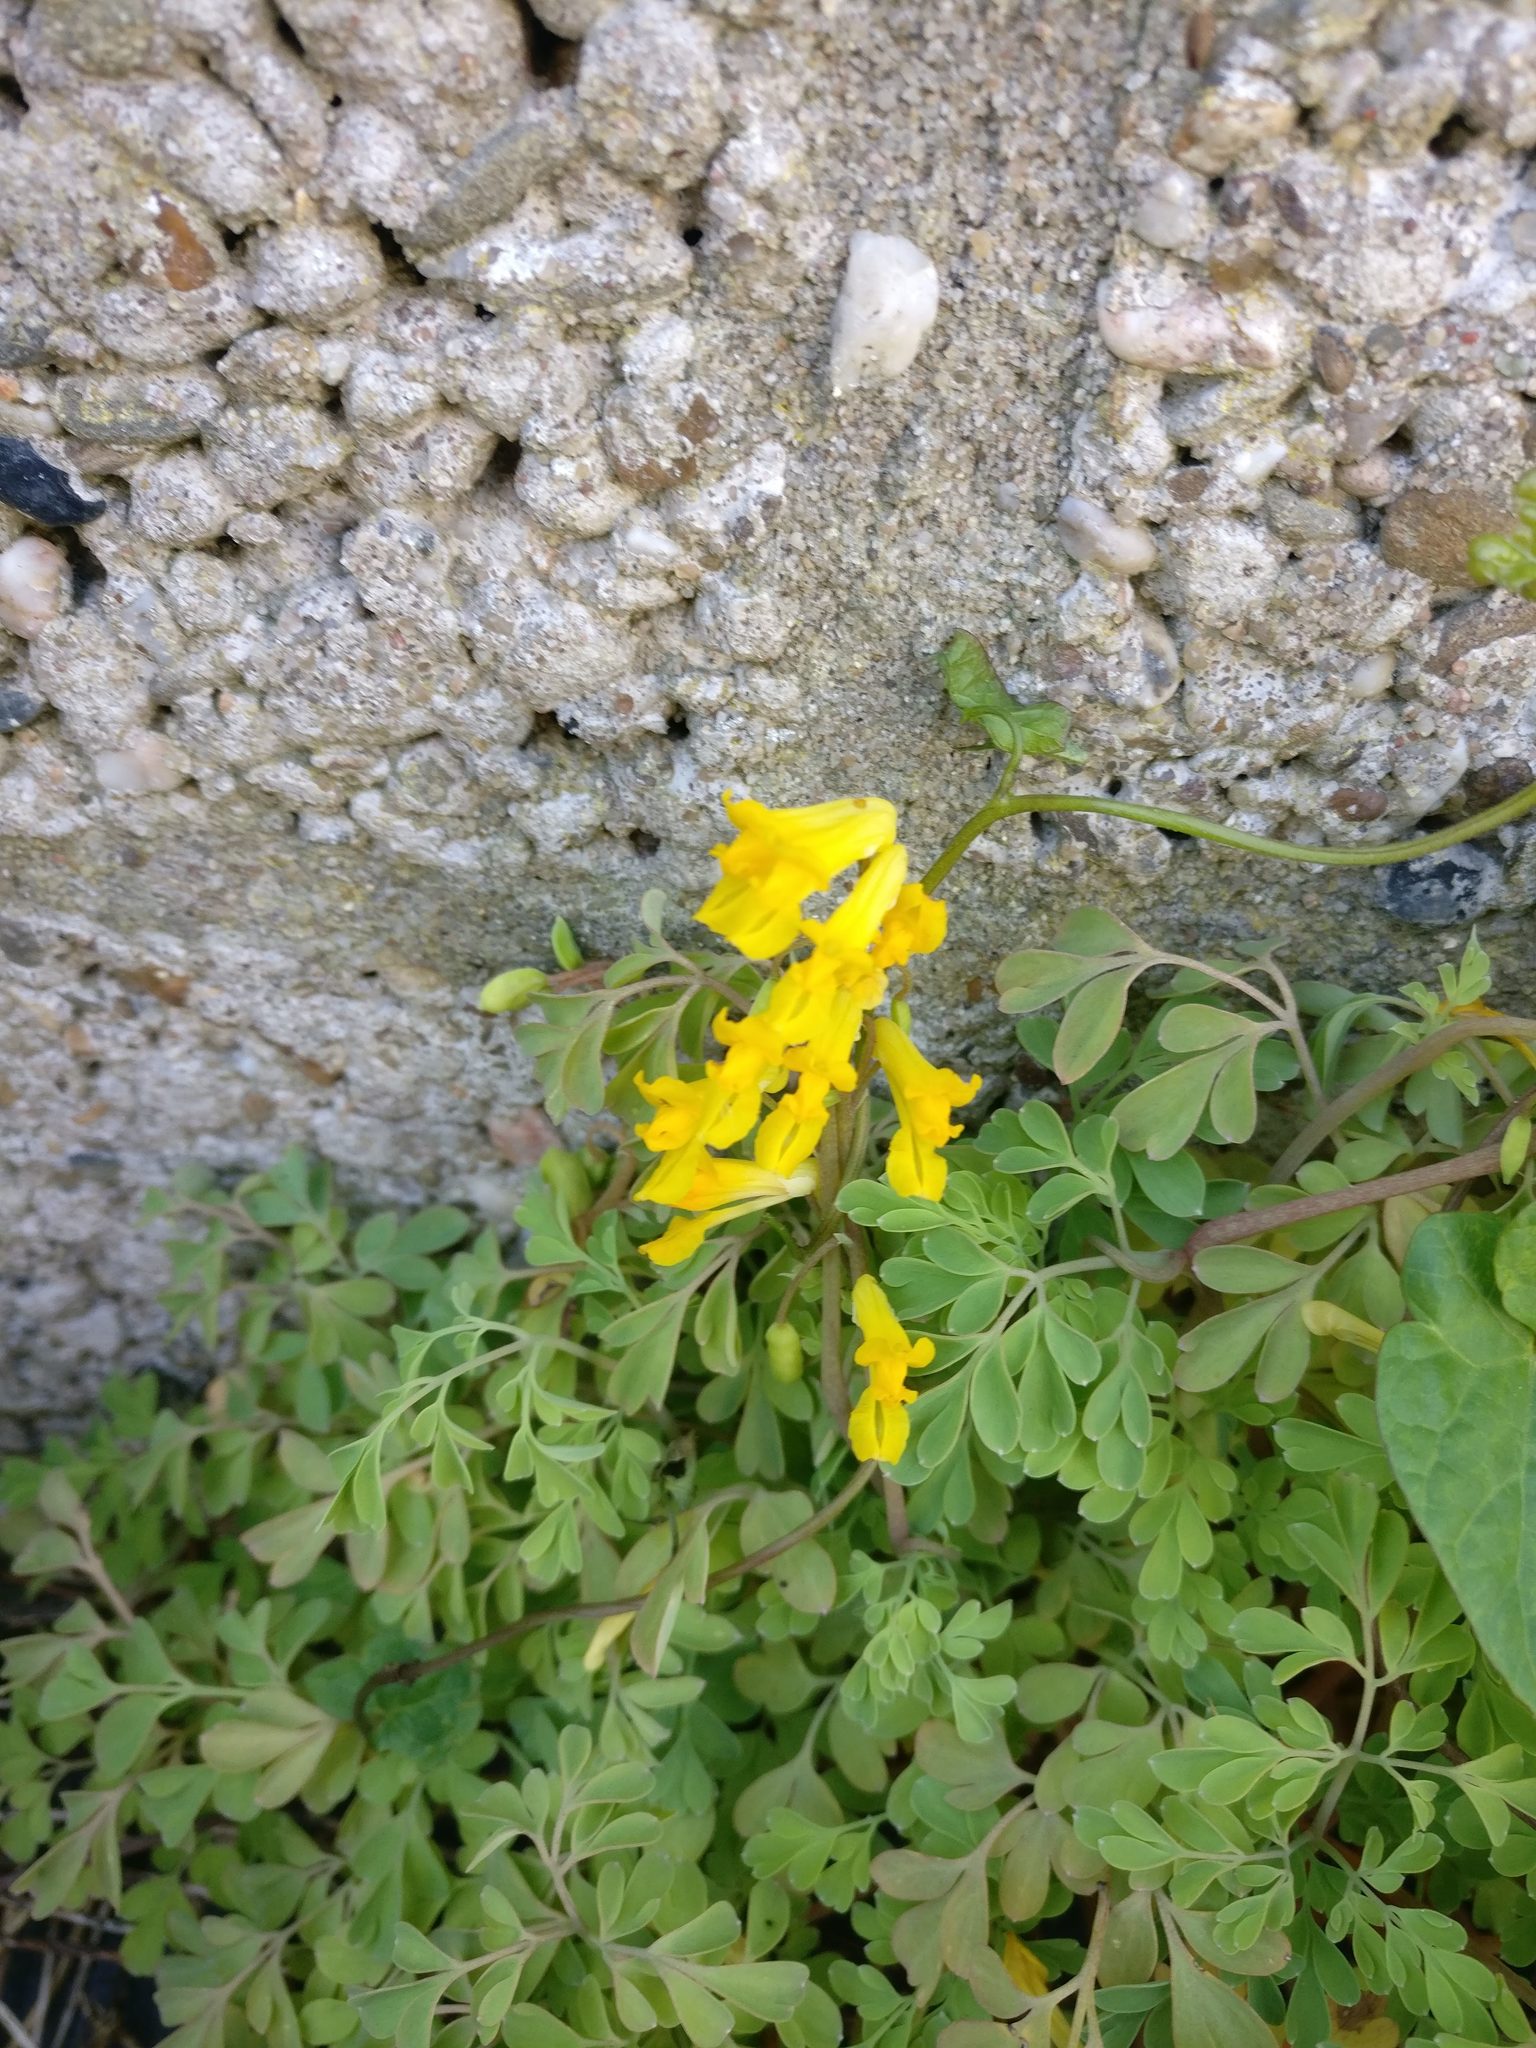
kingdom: Plantae
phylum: Tracheophyta
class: Magnoliopsida
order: Ranunculales
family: Papaveraceae
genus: Pseudofumaria
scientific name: Pseudofumaria lutea
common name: Yellow corydalis
